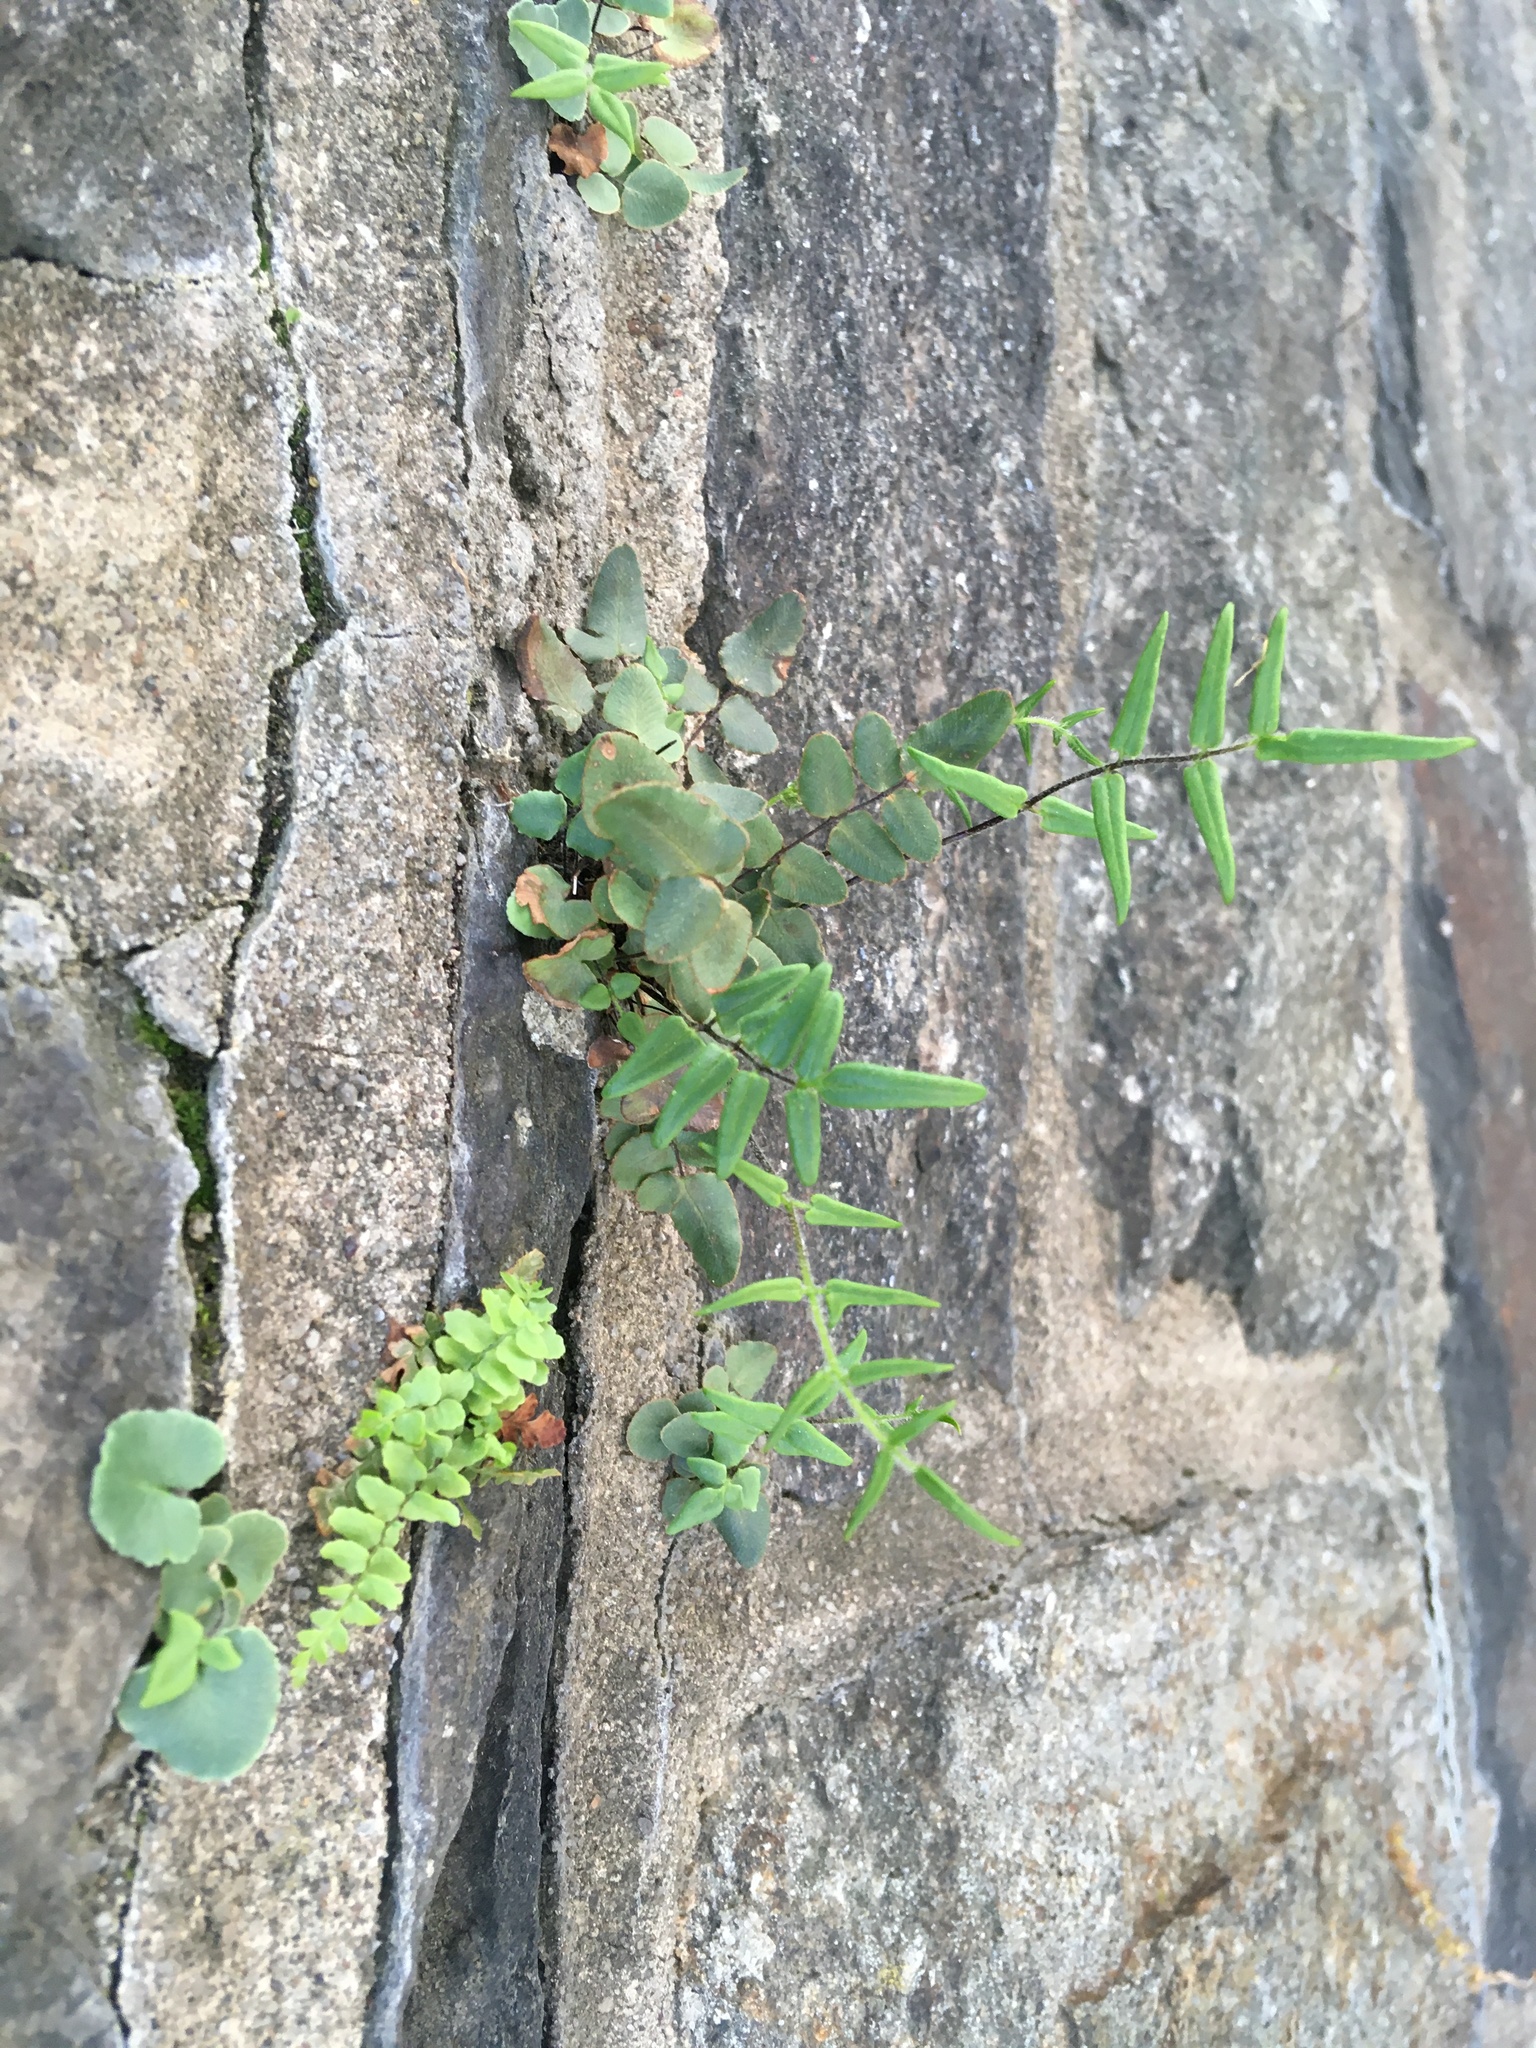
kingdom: Plantae
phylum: Tracheophyta
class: Polypodiopsida
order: Polypodiales
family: Pteridaceae
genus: Pellaea
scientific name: Pellaea atropurpurea
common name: Hairy cliffbrake
